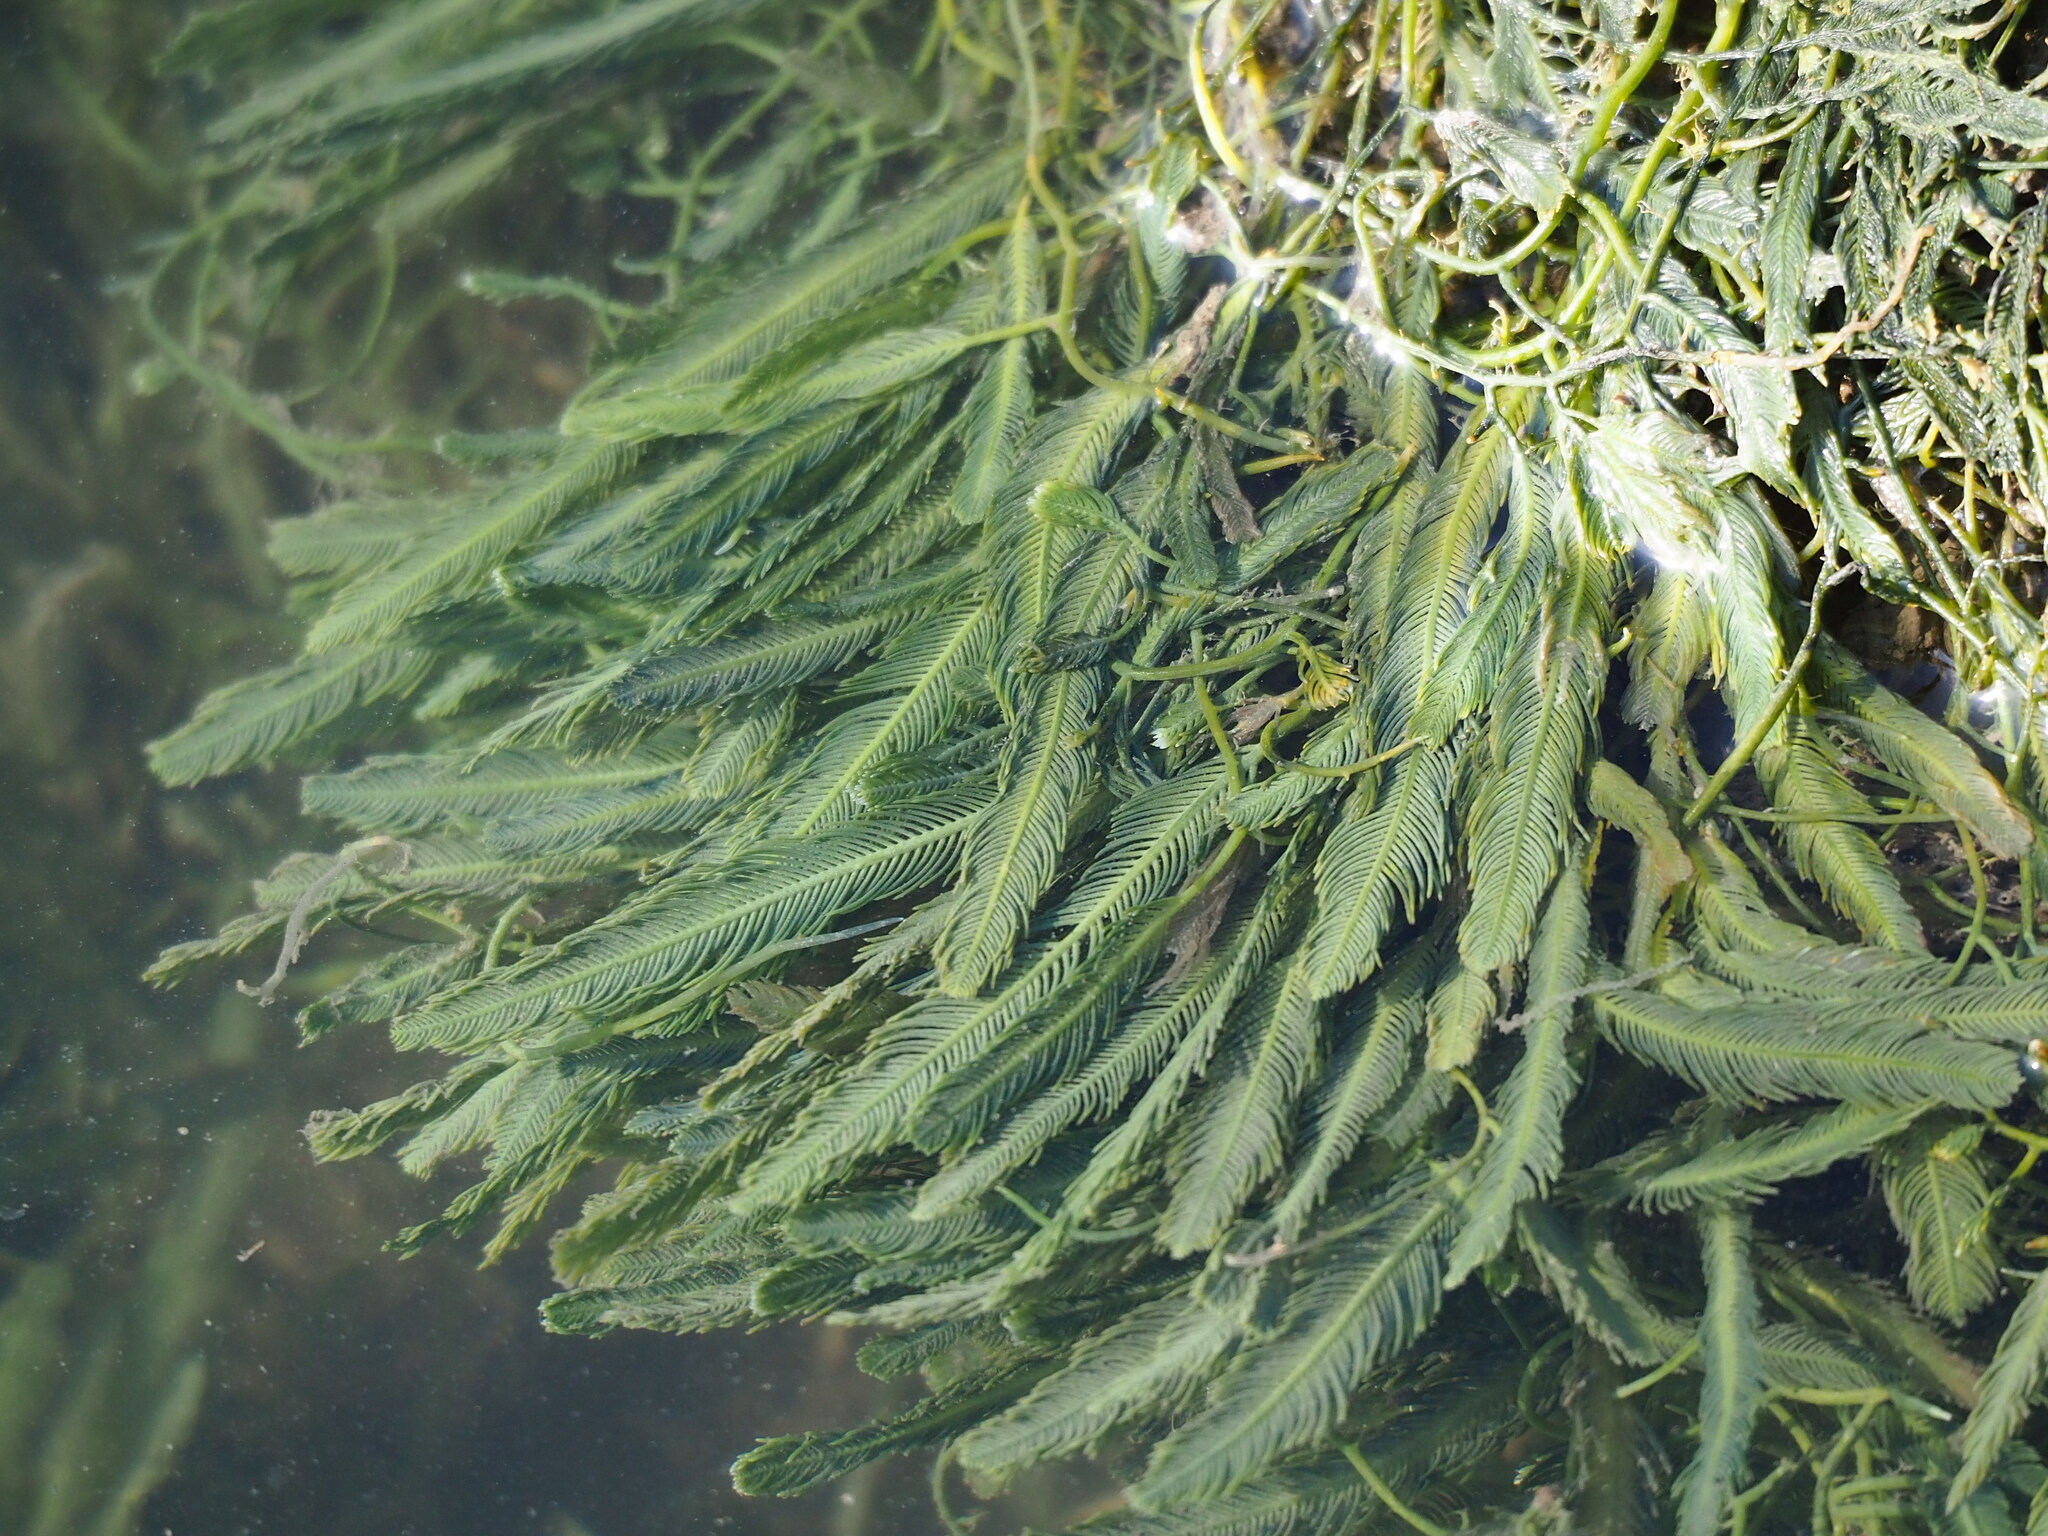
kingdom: Plantae
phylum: Chlorophyta
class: Ulvophyceae
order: Bryopsidales
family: Caulerpaceae
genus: Caulerpa
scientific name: Caulerpa sertularioides
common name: Green feather algae
